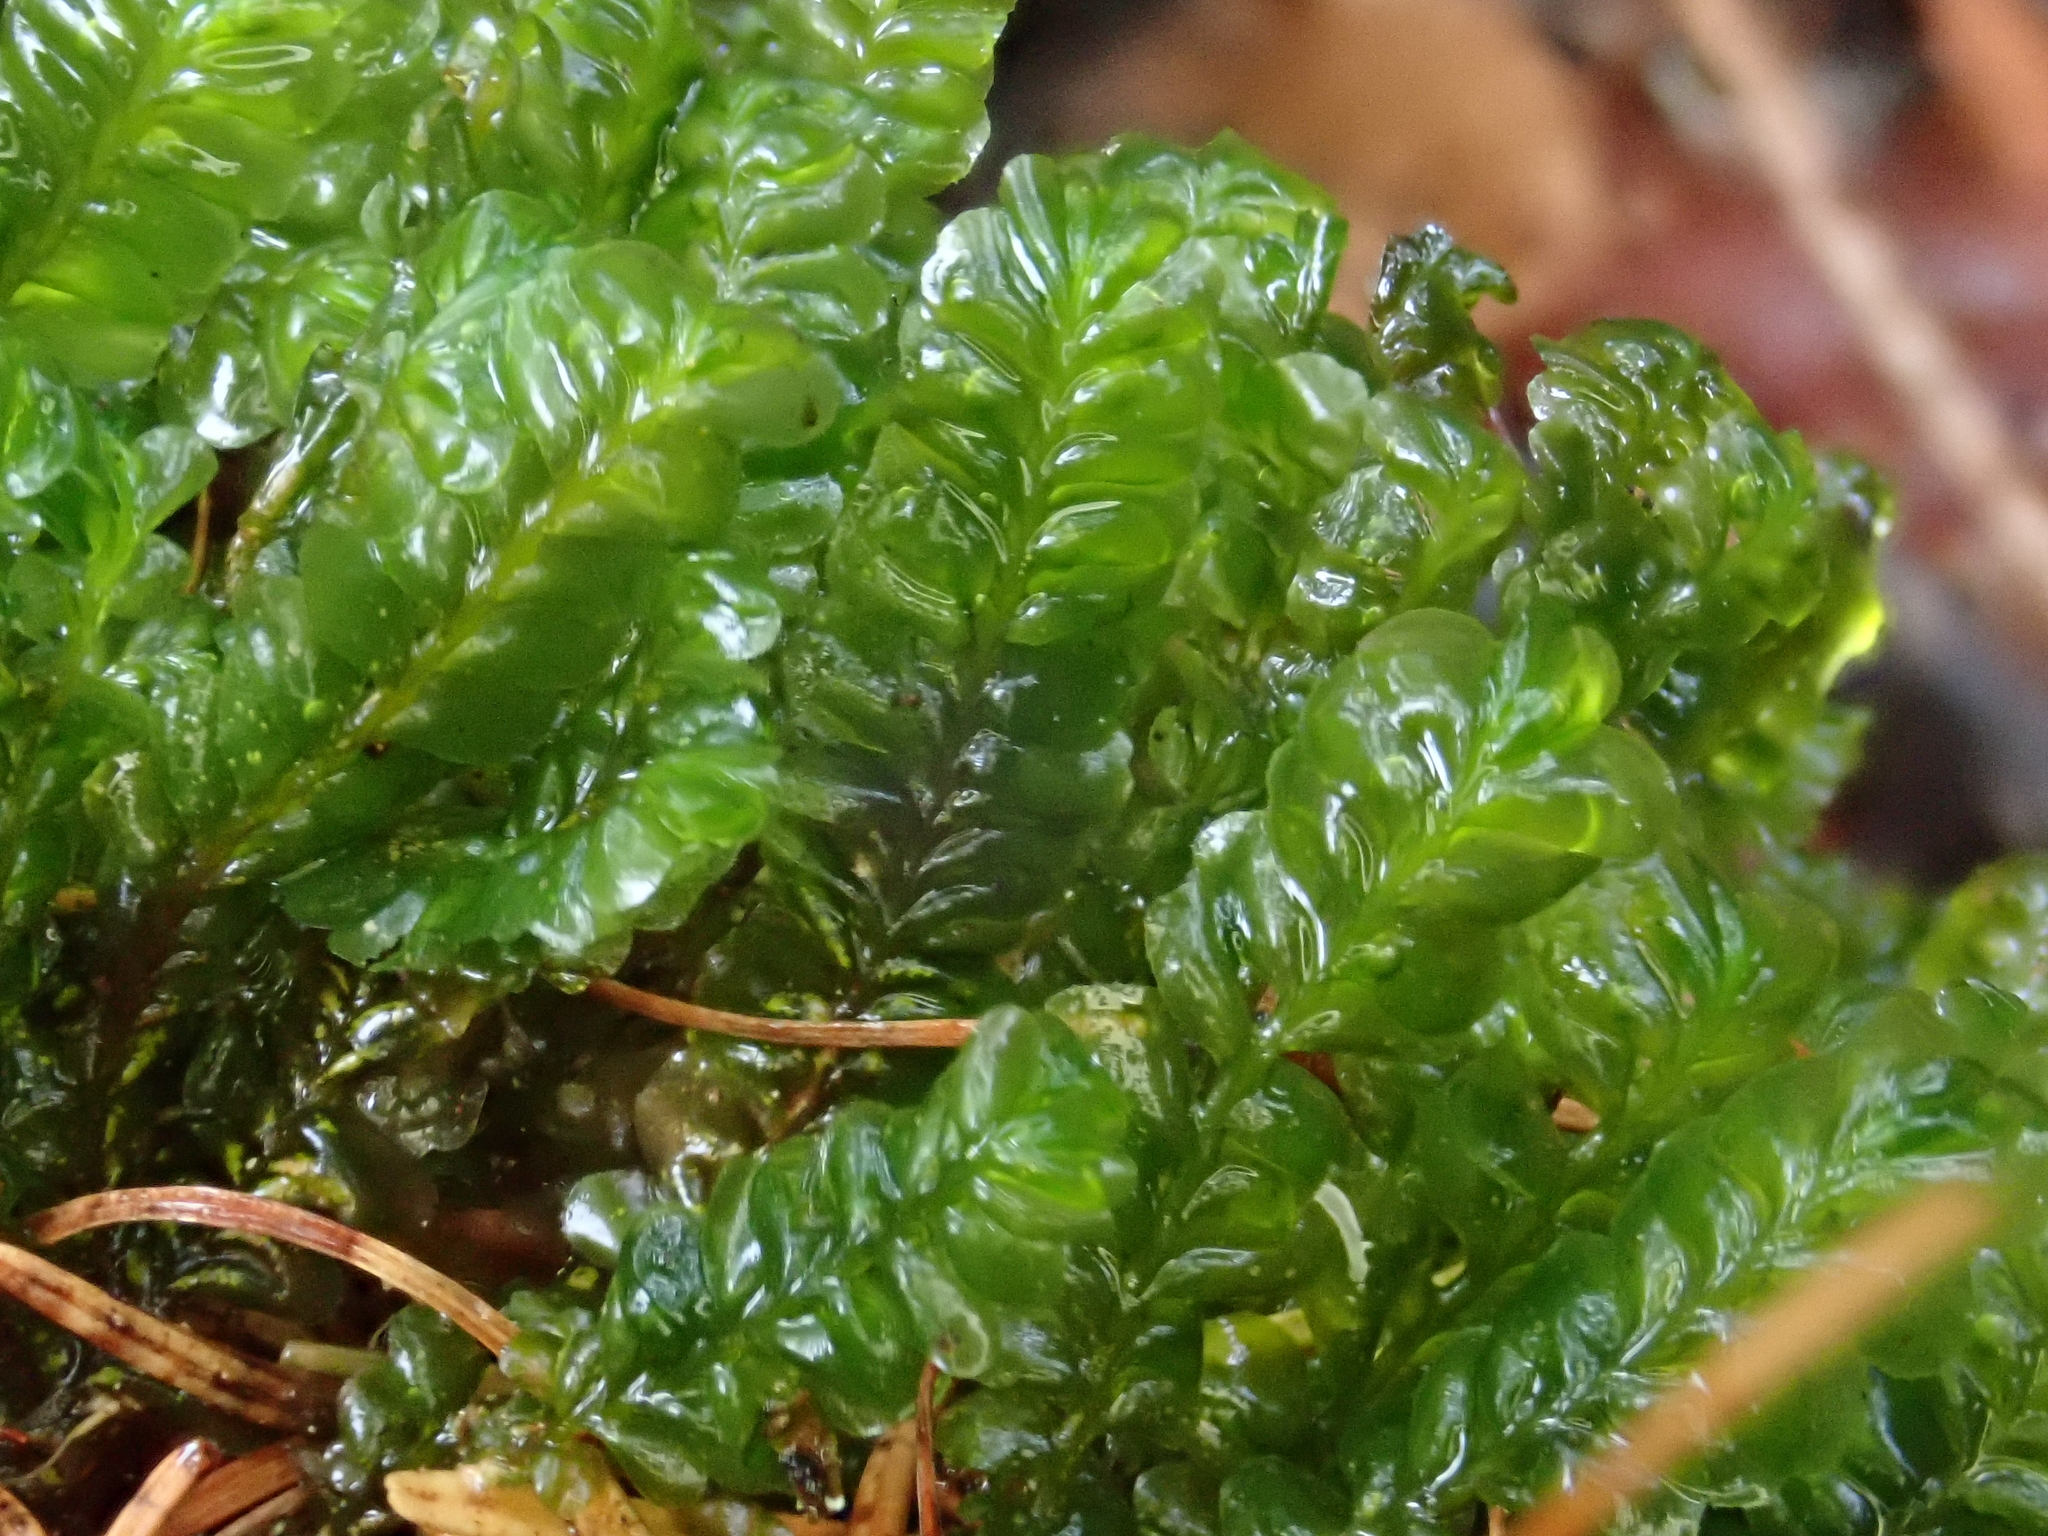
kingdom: Plantae
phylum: Marchantiophyta
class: Jungermanniopsida
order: Jungermanniales
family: Plagiochilaceae
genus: Plagiochila
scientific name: Plagiochila asplenioides
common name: Greater featherwort
